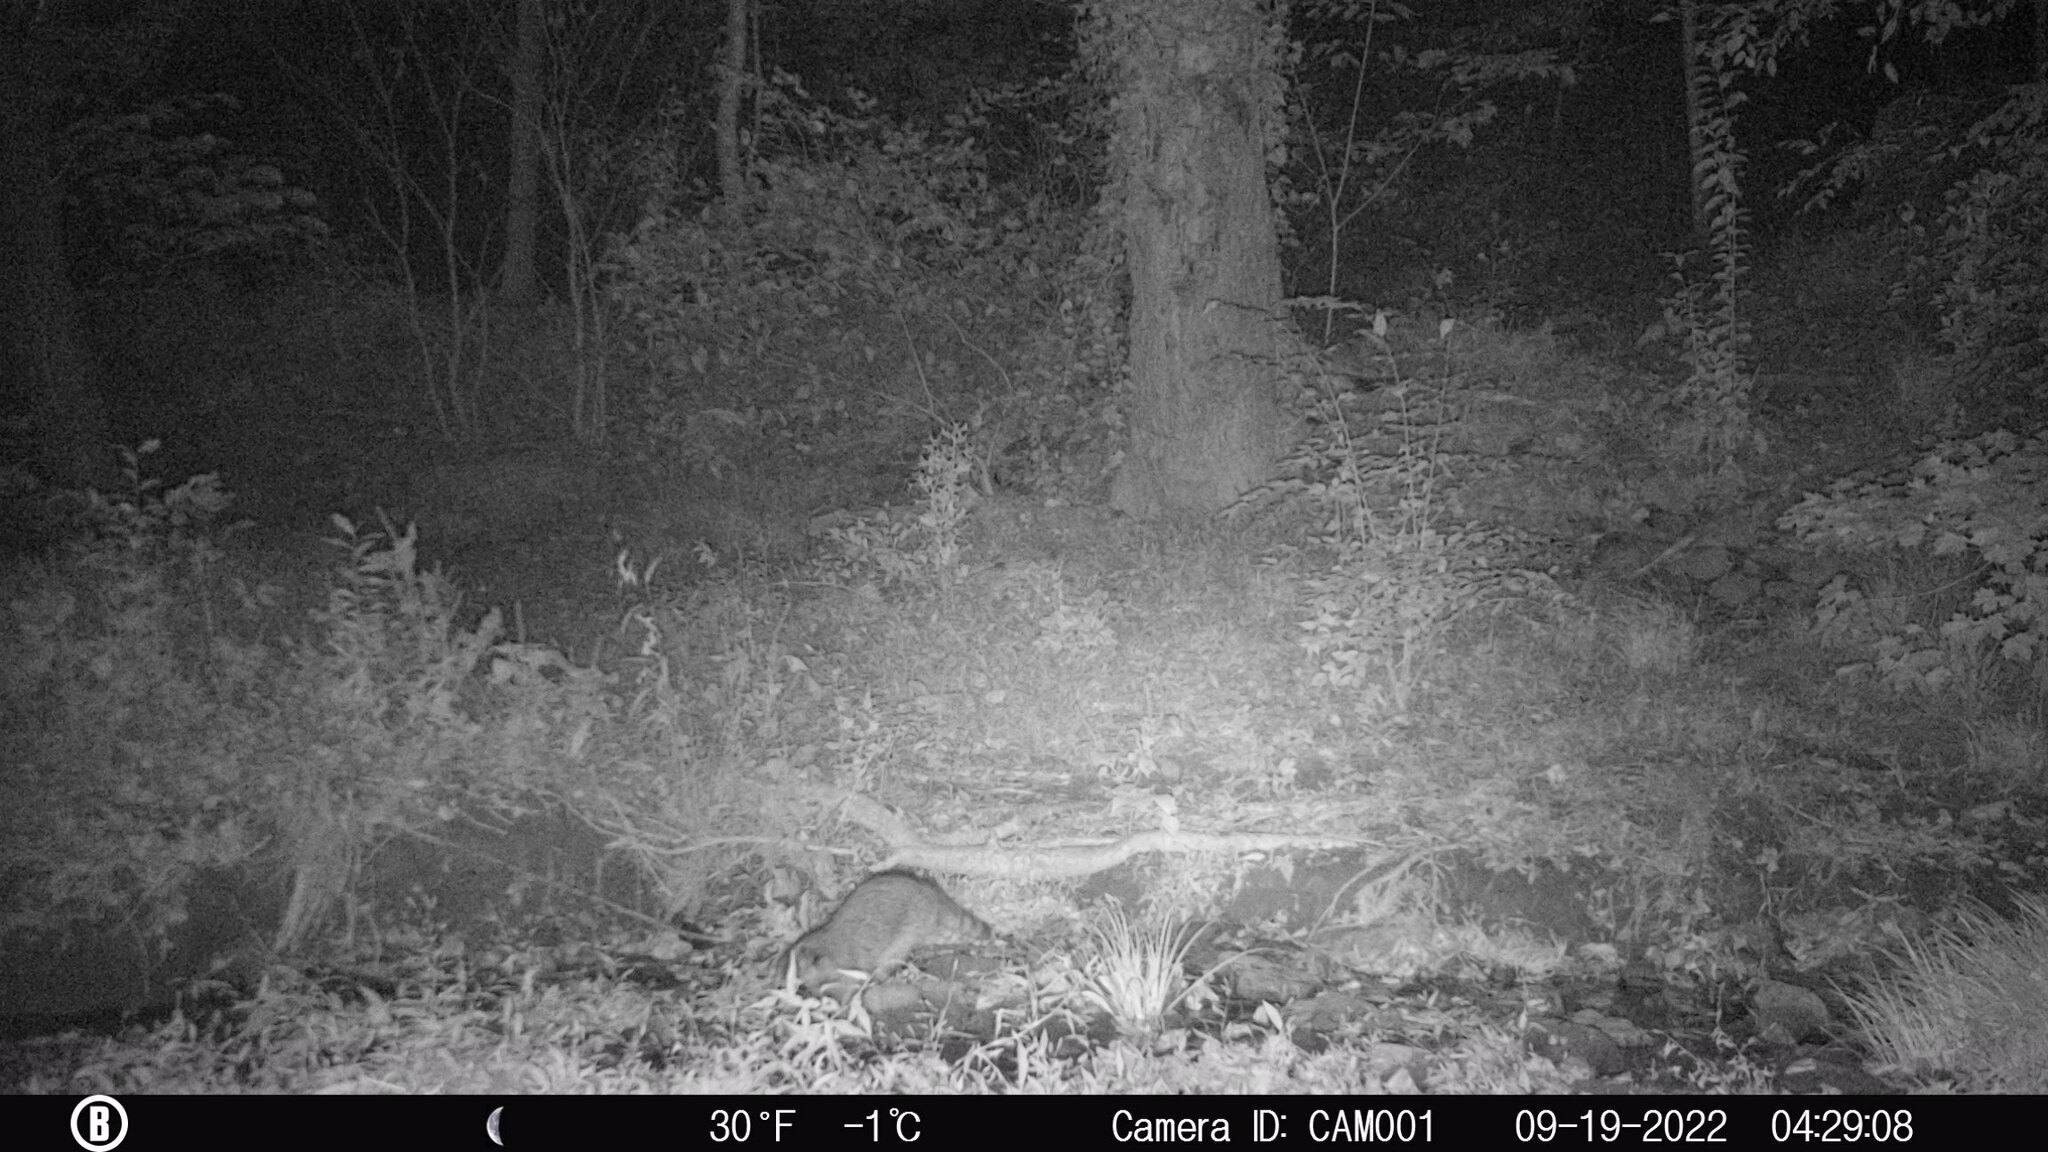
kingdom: Animalia
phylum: Chordata
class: Mammalia
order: Carnivora
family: Procyonidae
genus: Procyon
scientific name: Procyon lotor
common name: Raccoon
